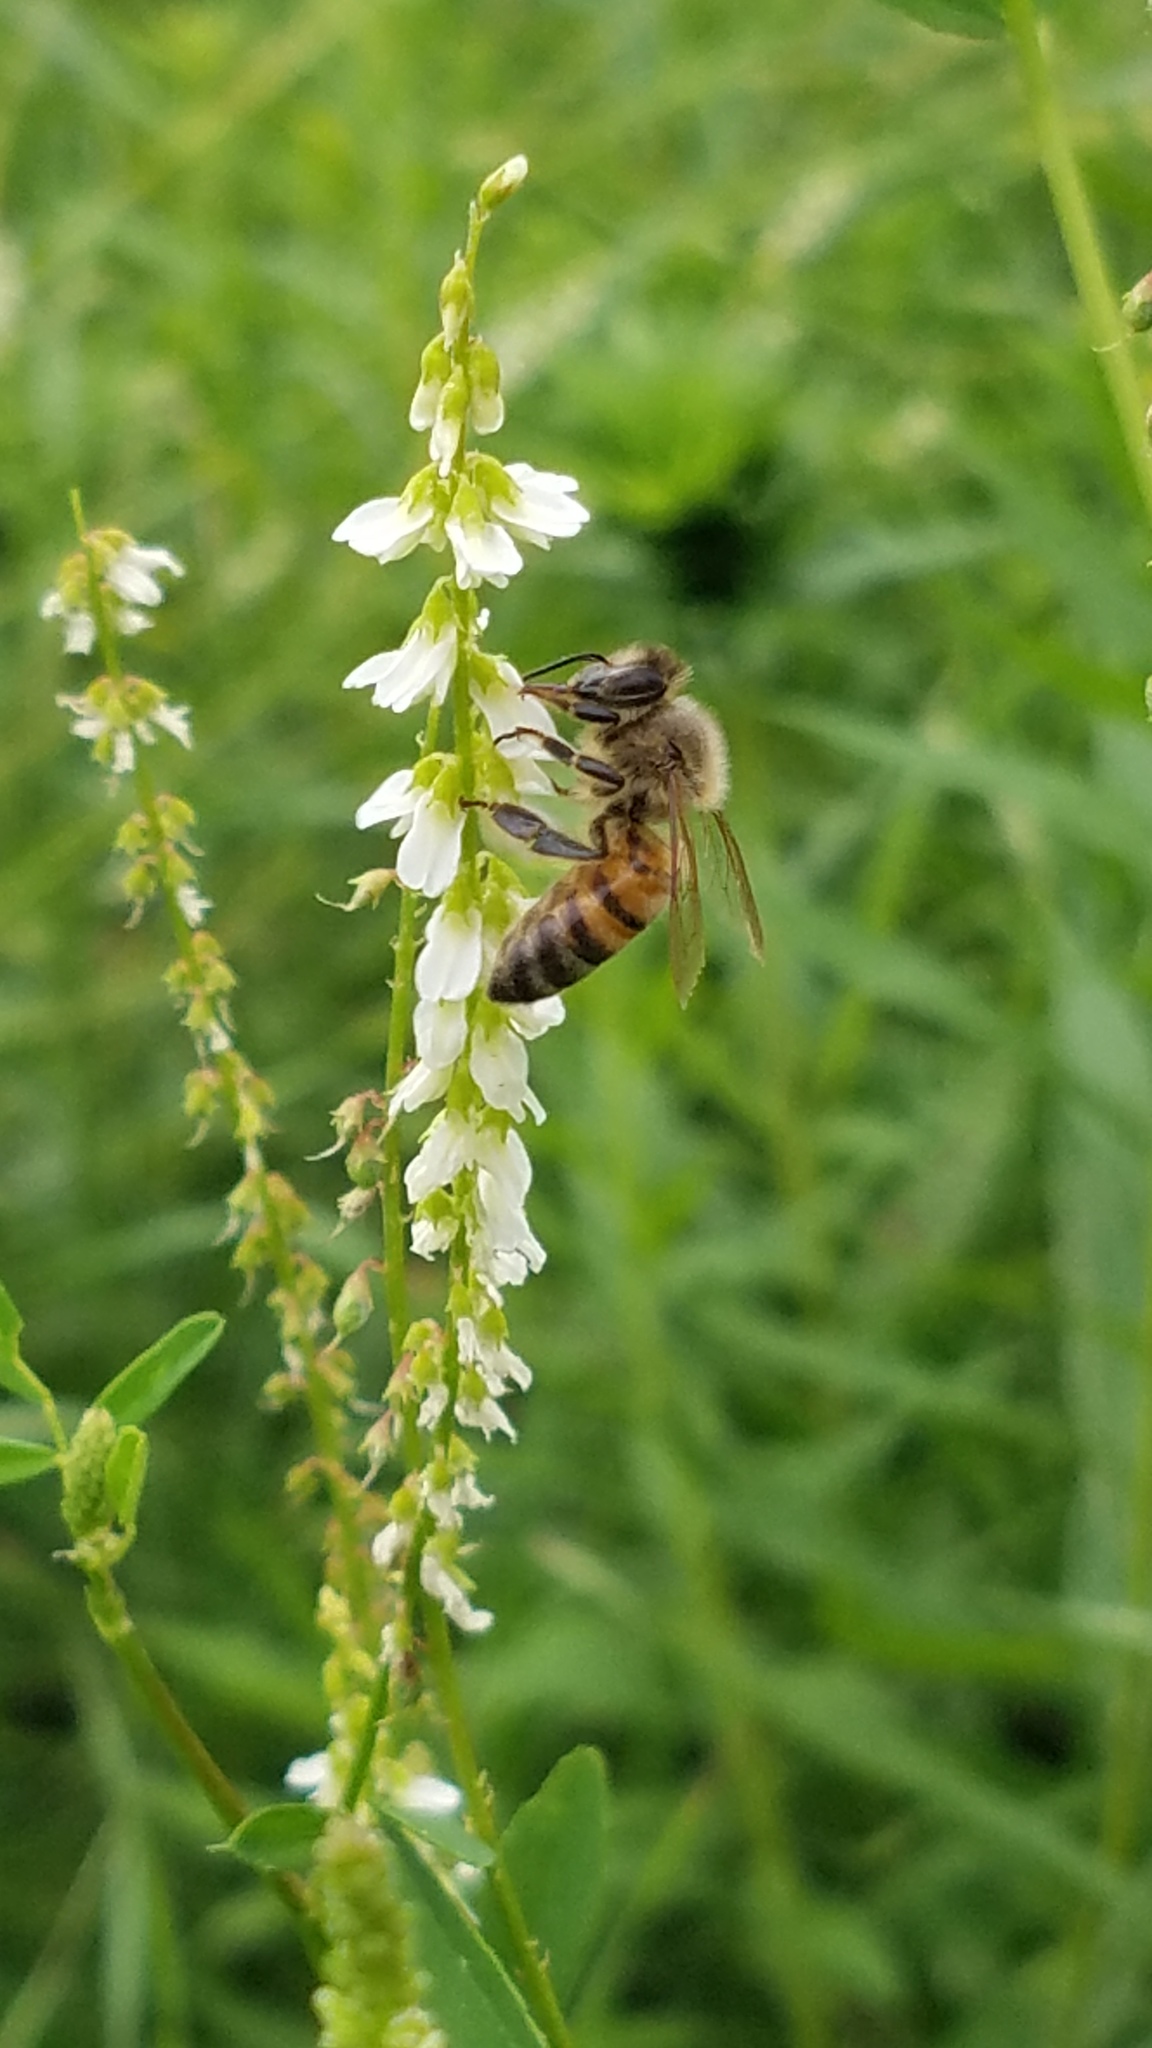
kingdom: Animalia
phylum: Arthropoda
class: Insecta
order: Hymenoptera
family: Apidae
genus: Apis
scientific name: Apis mellifera
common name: Honey bee
